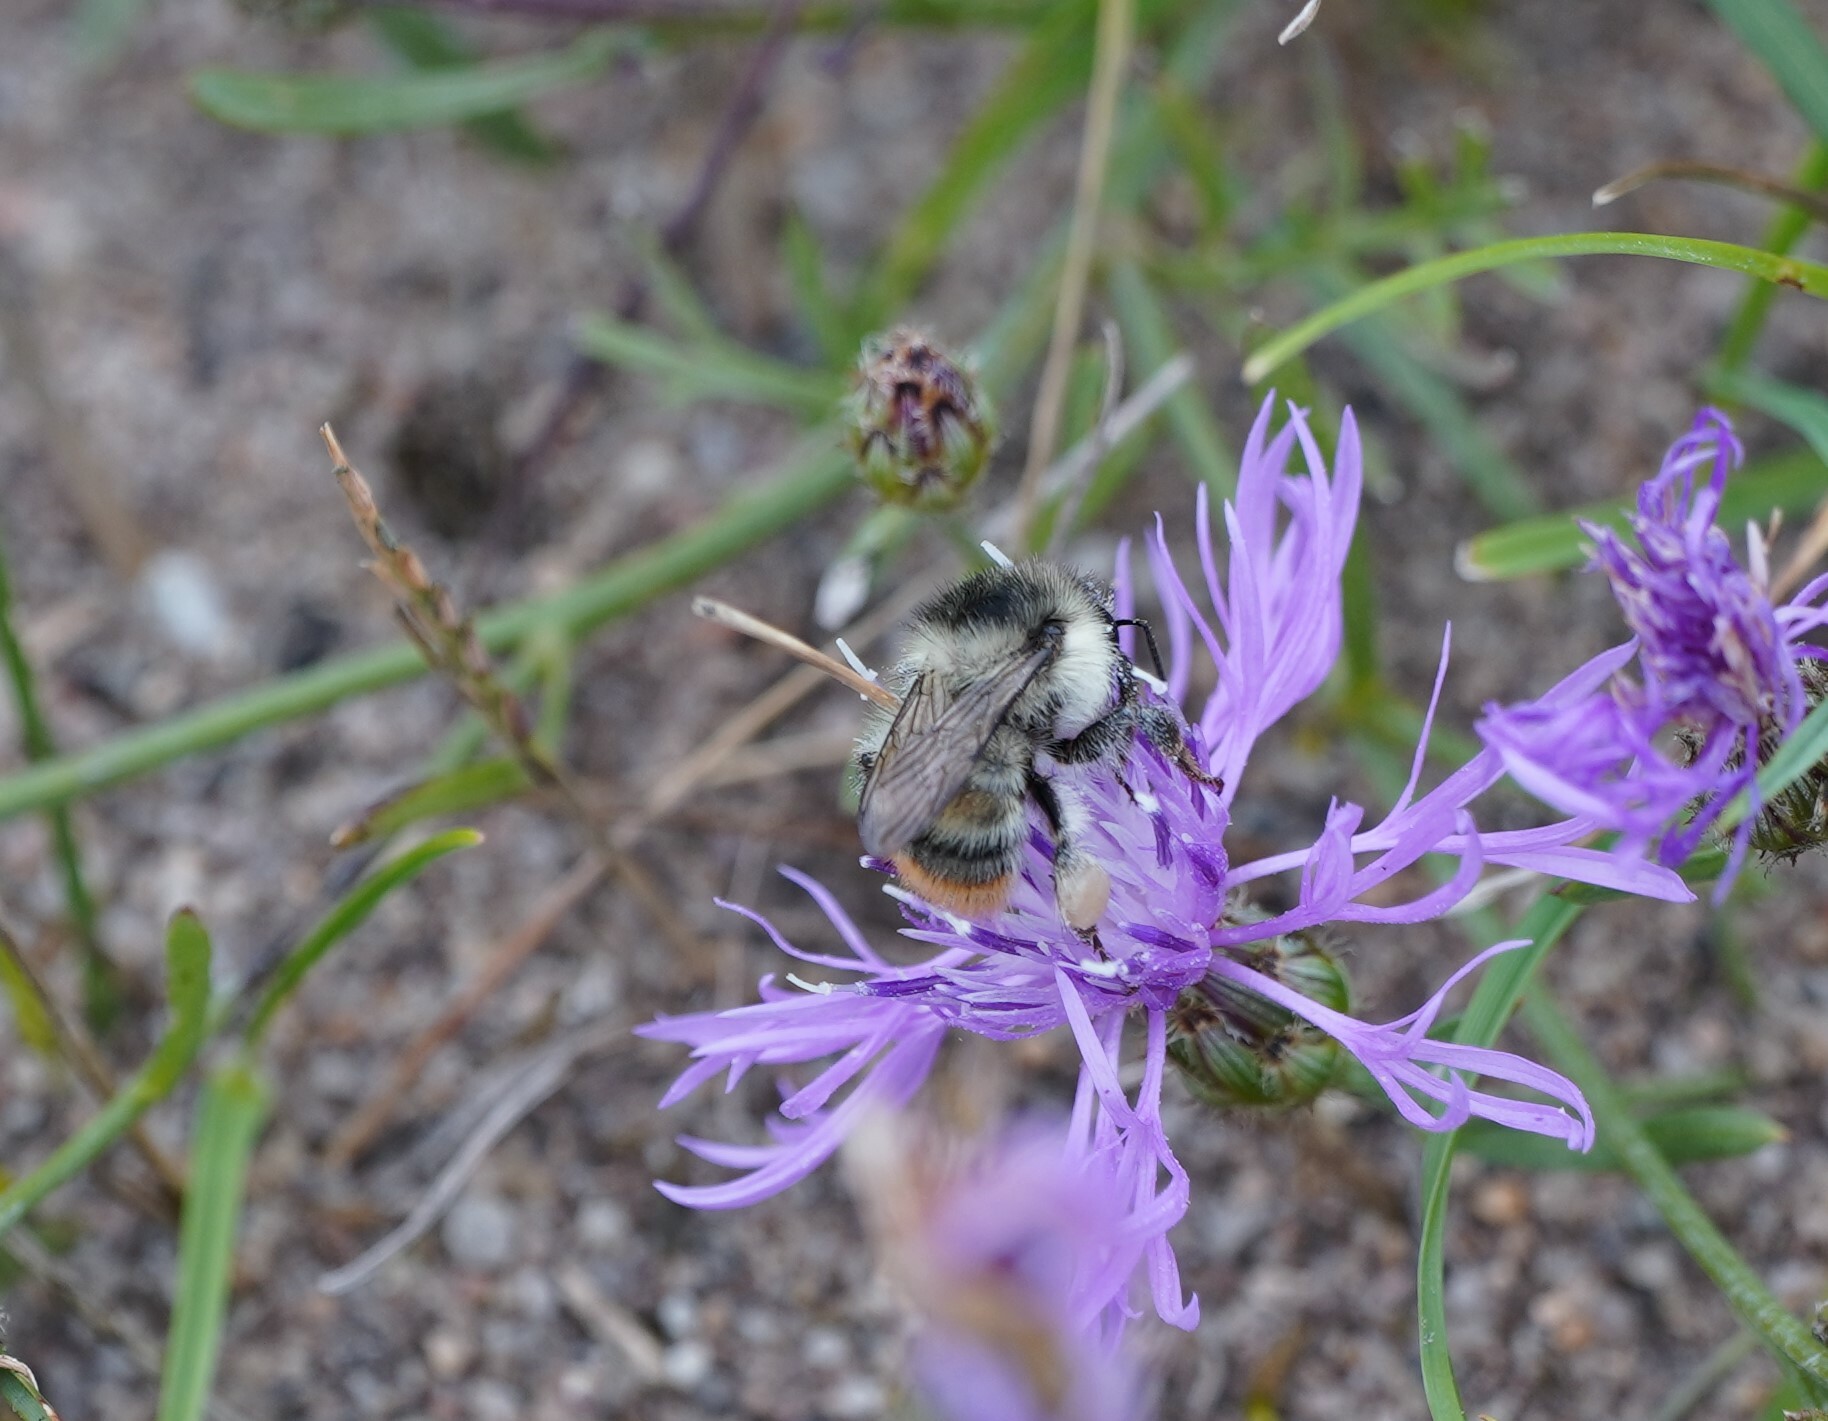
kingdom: Animalia
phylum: Arthropoda
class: Insecta
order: Hymenoptera
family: Apidae
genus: Bombus
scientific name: Bombus sylvarum
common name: Shrill carder bee
